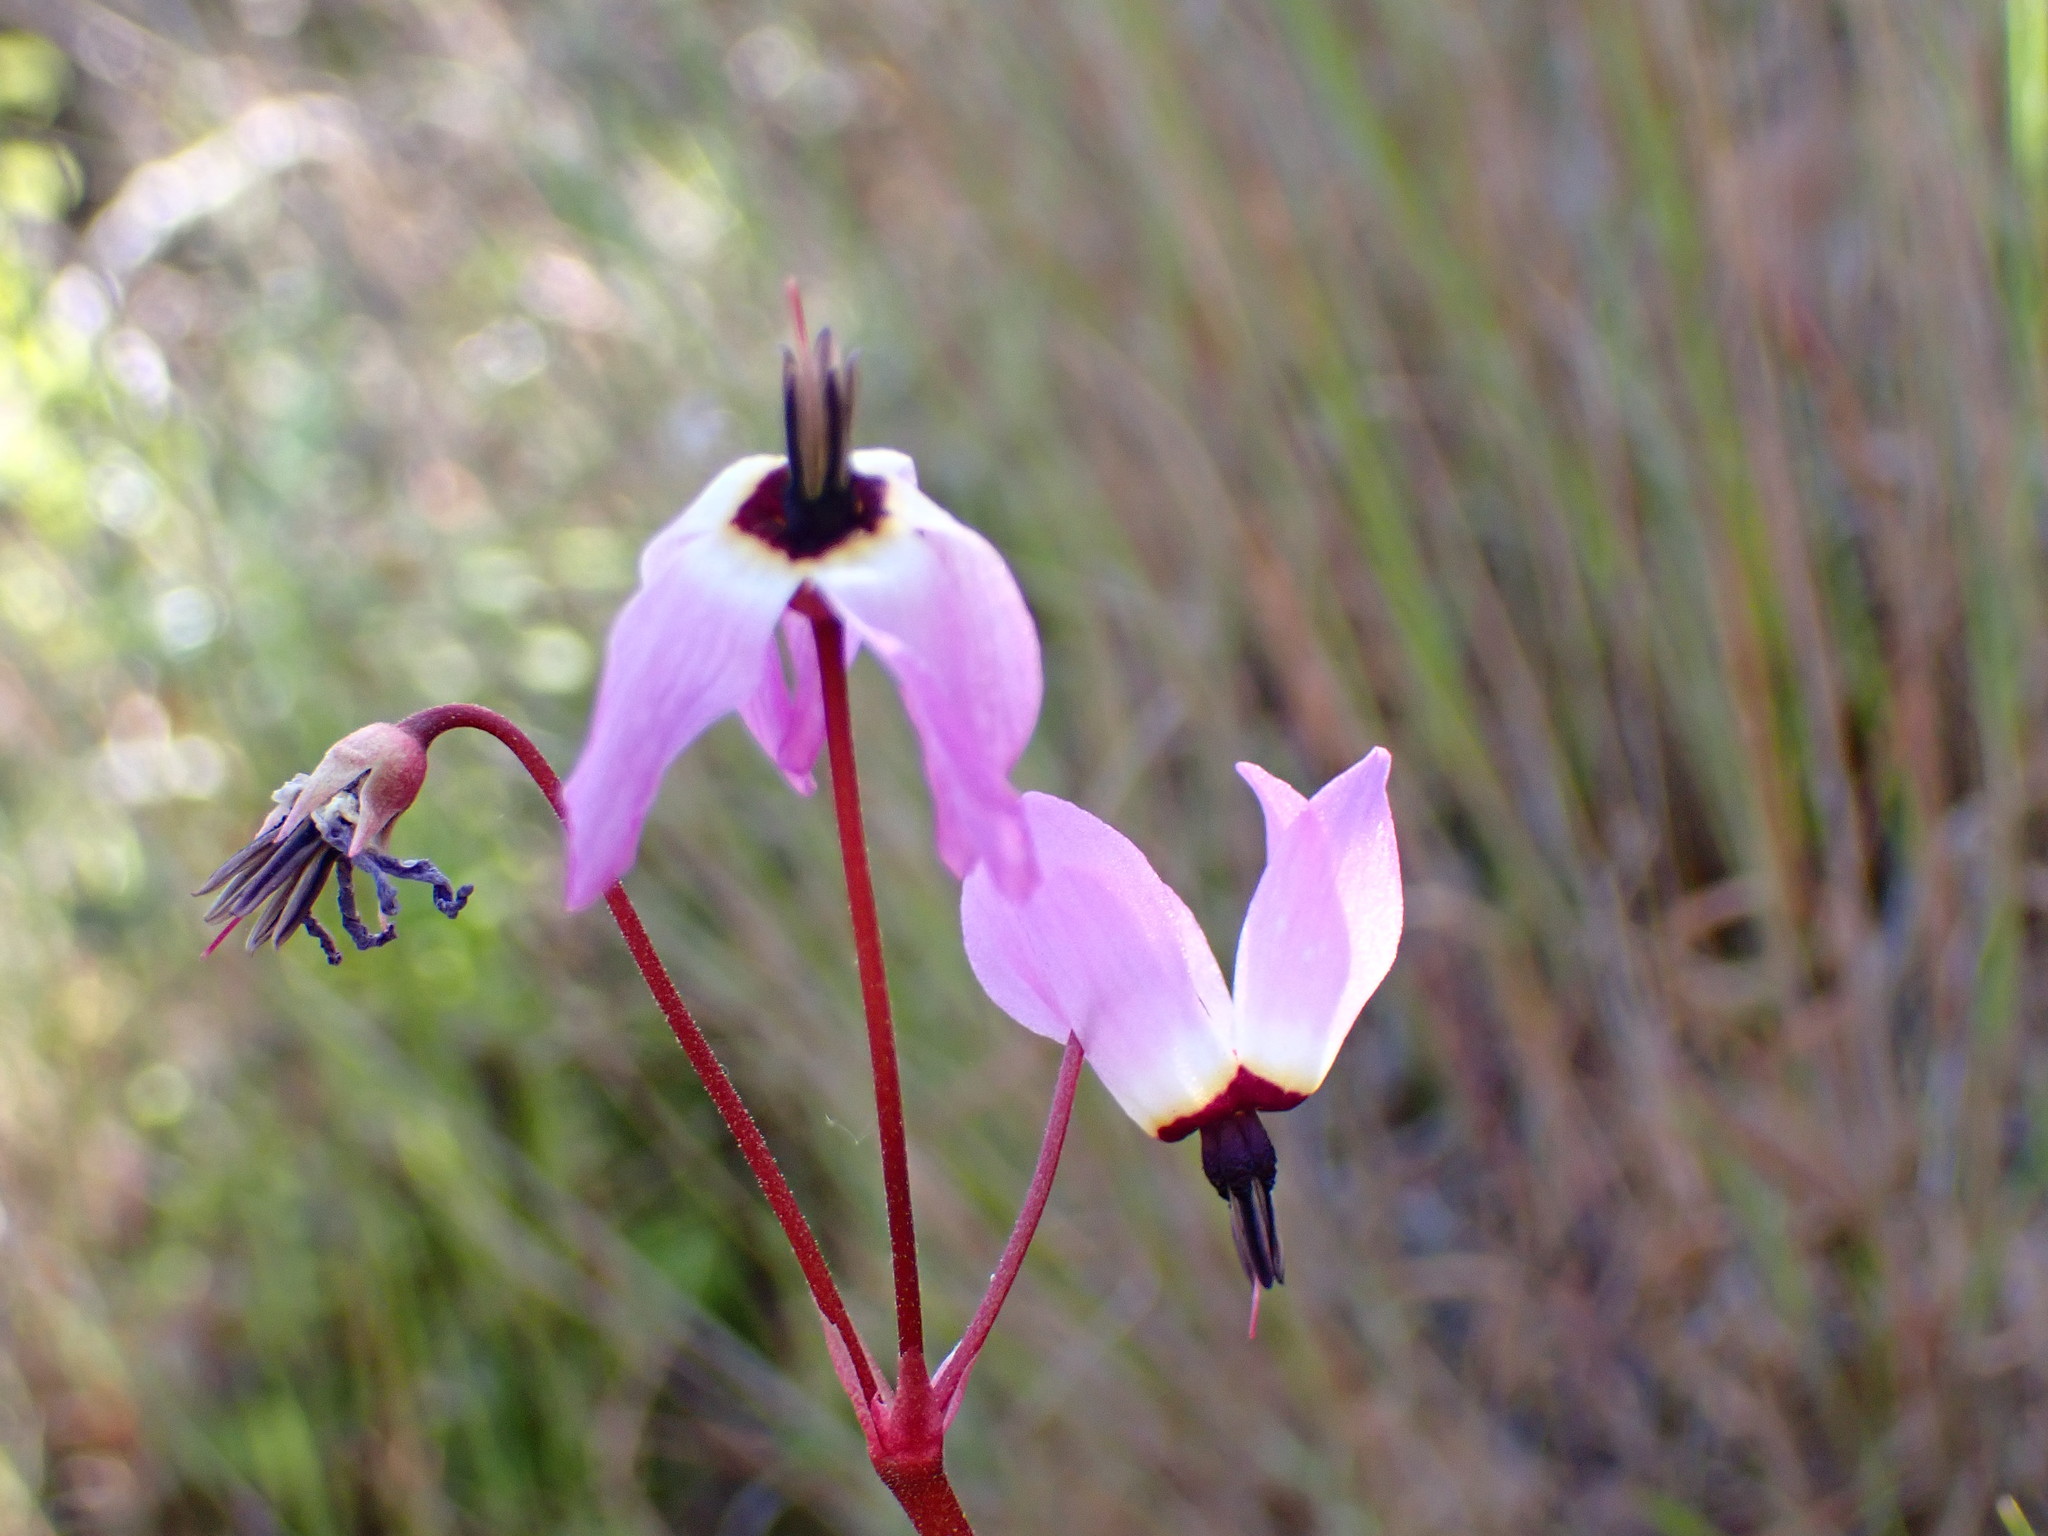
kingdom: Plantae
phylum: Tracheophyta
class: Magnoliopsida
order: Ericales
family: Primulaceae
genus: Dodecatheon
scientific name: Dodecatheon hendersonii
